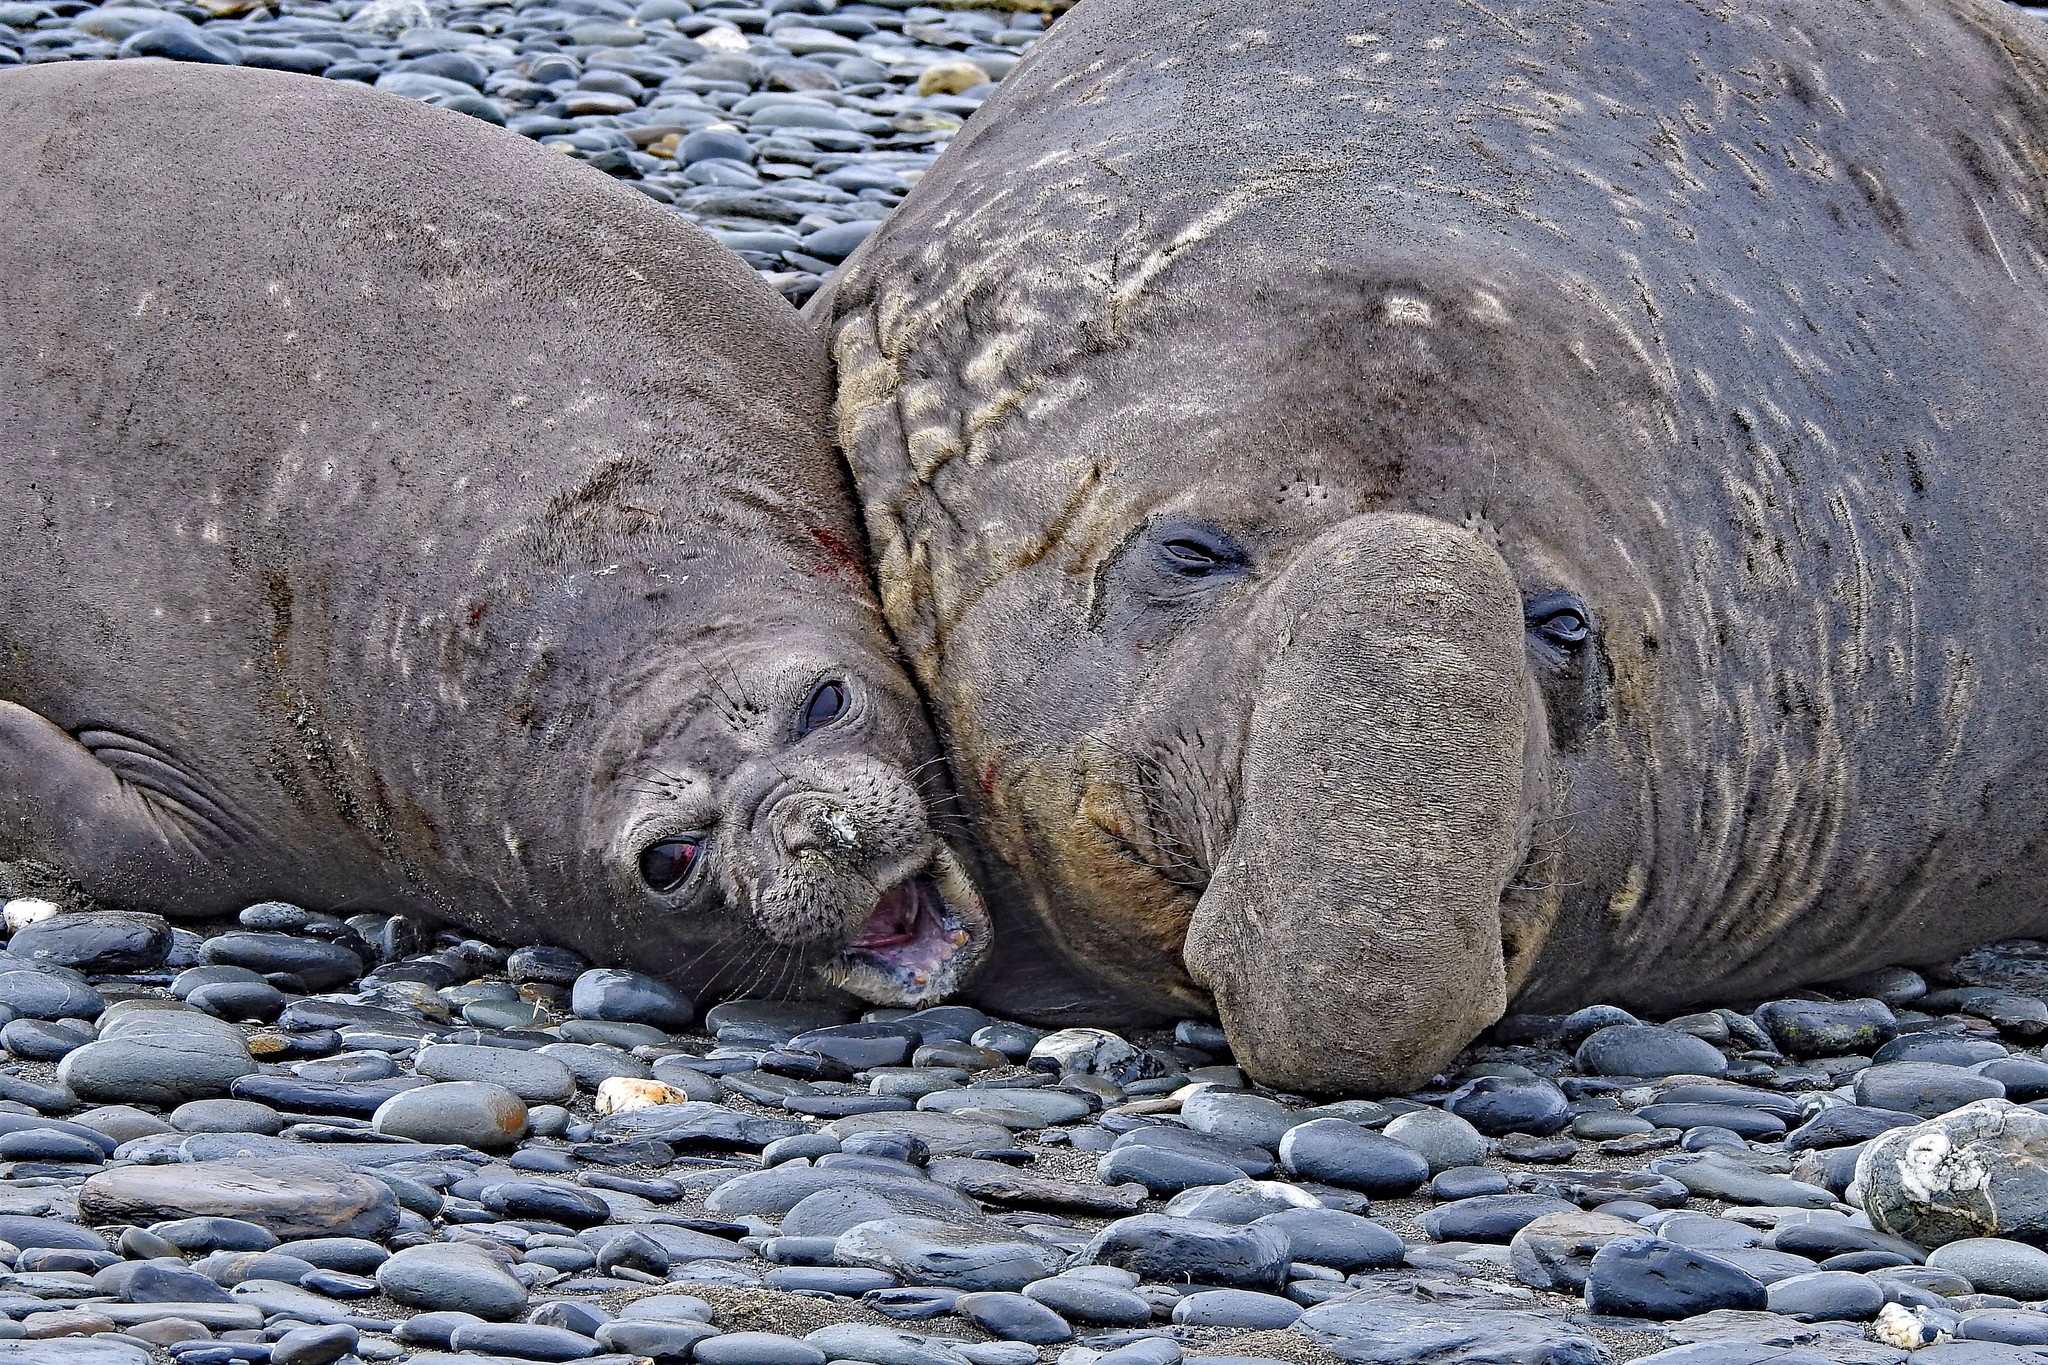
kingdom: Animalia
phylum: Chordata
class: Mammalia
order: Carnivora
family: Phocidae
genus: Mirounga
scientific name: Mirounga leonina
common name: Southern elephant seal
